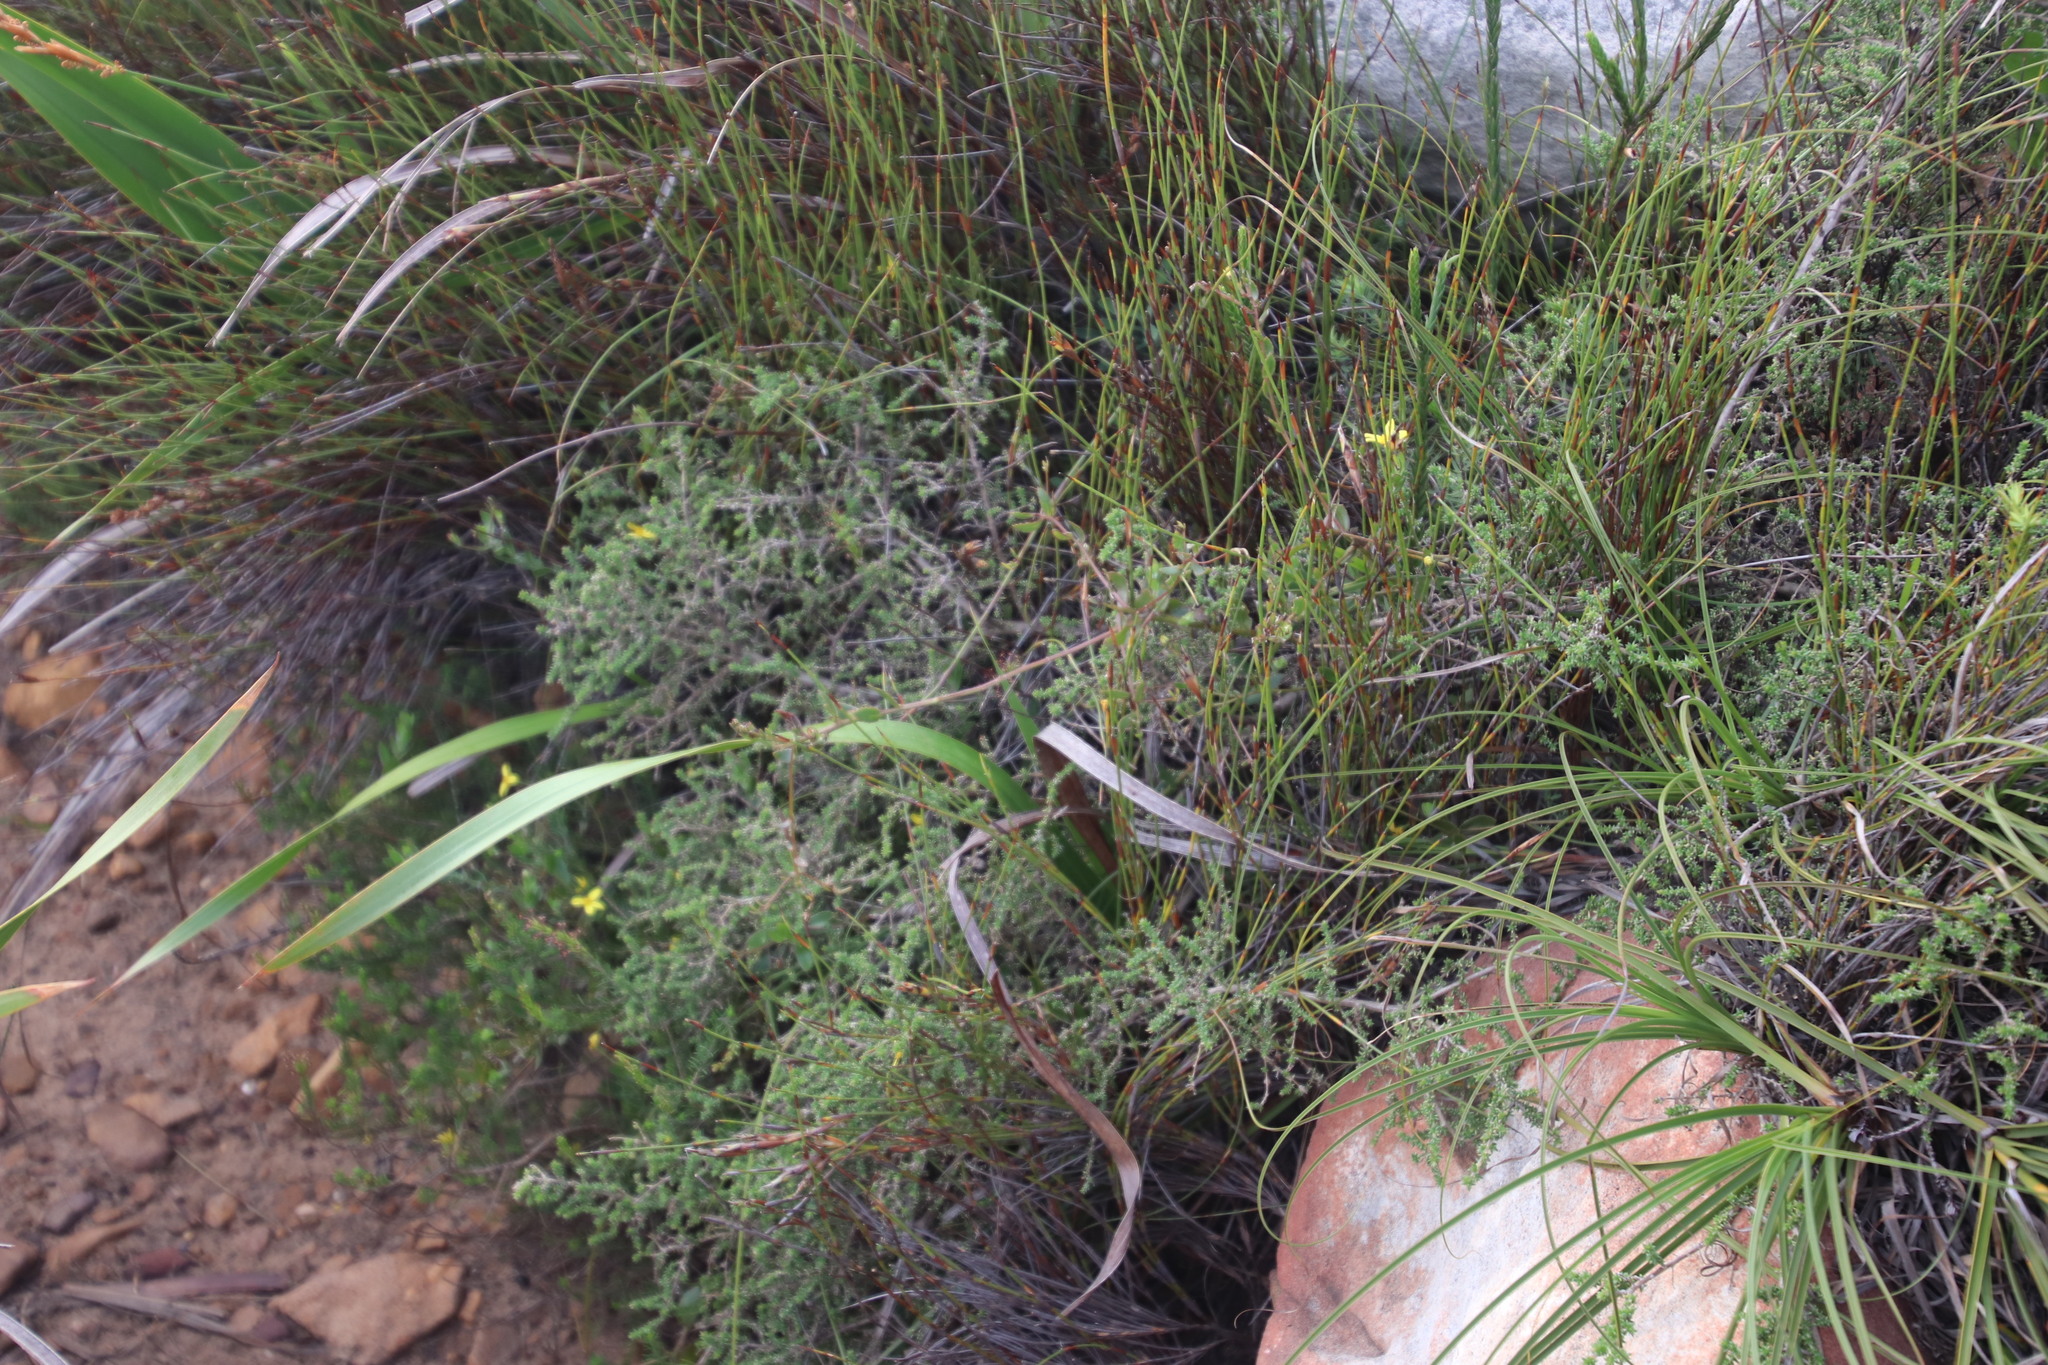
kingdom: Plantae
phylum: Tracheophyta
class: Magnoliopsida
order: Asterales
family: Asteraceae
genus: Osteospermum
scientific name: Osteospermum ciliatum
